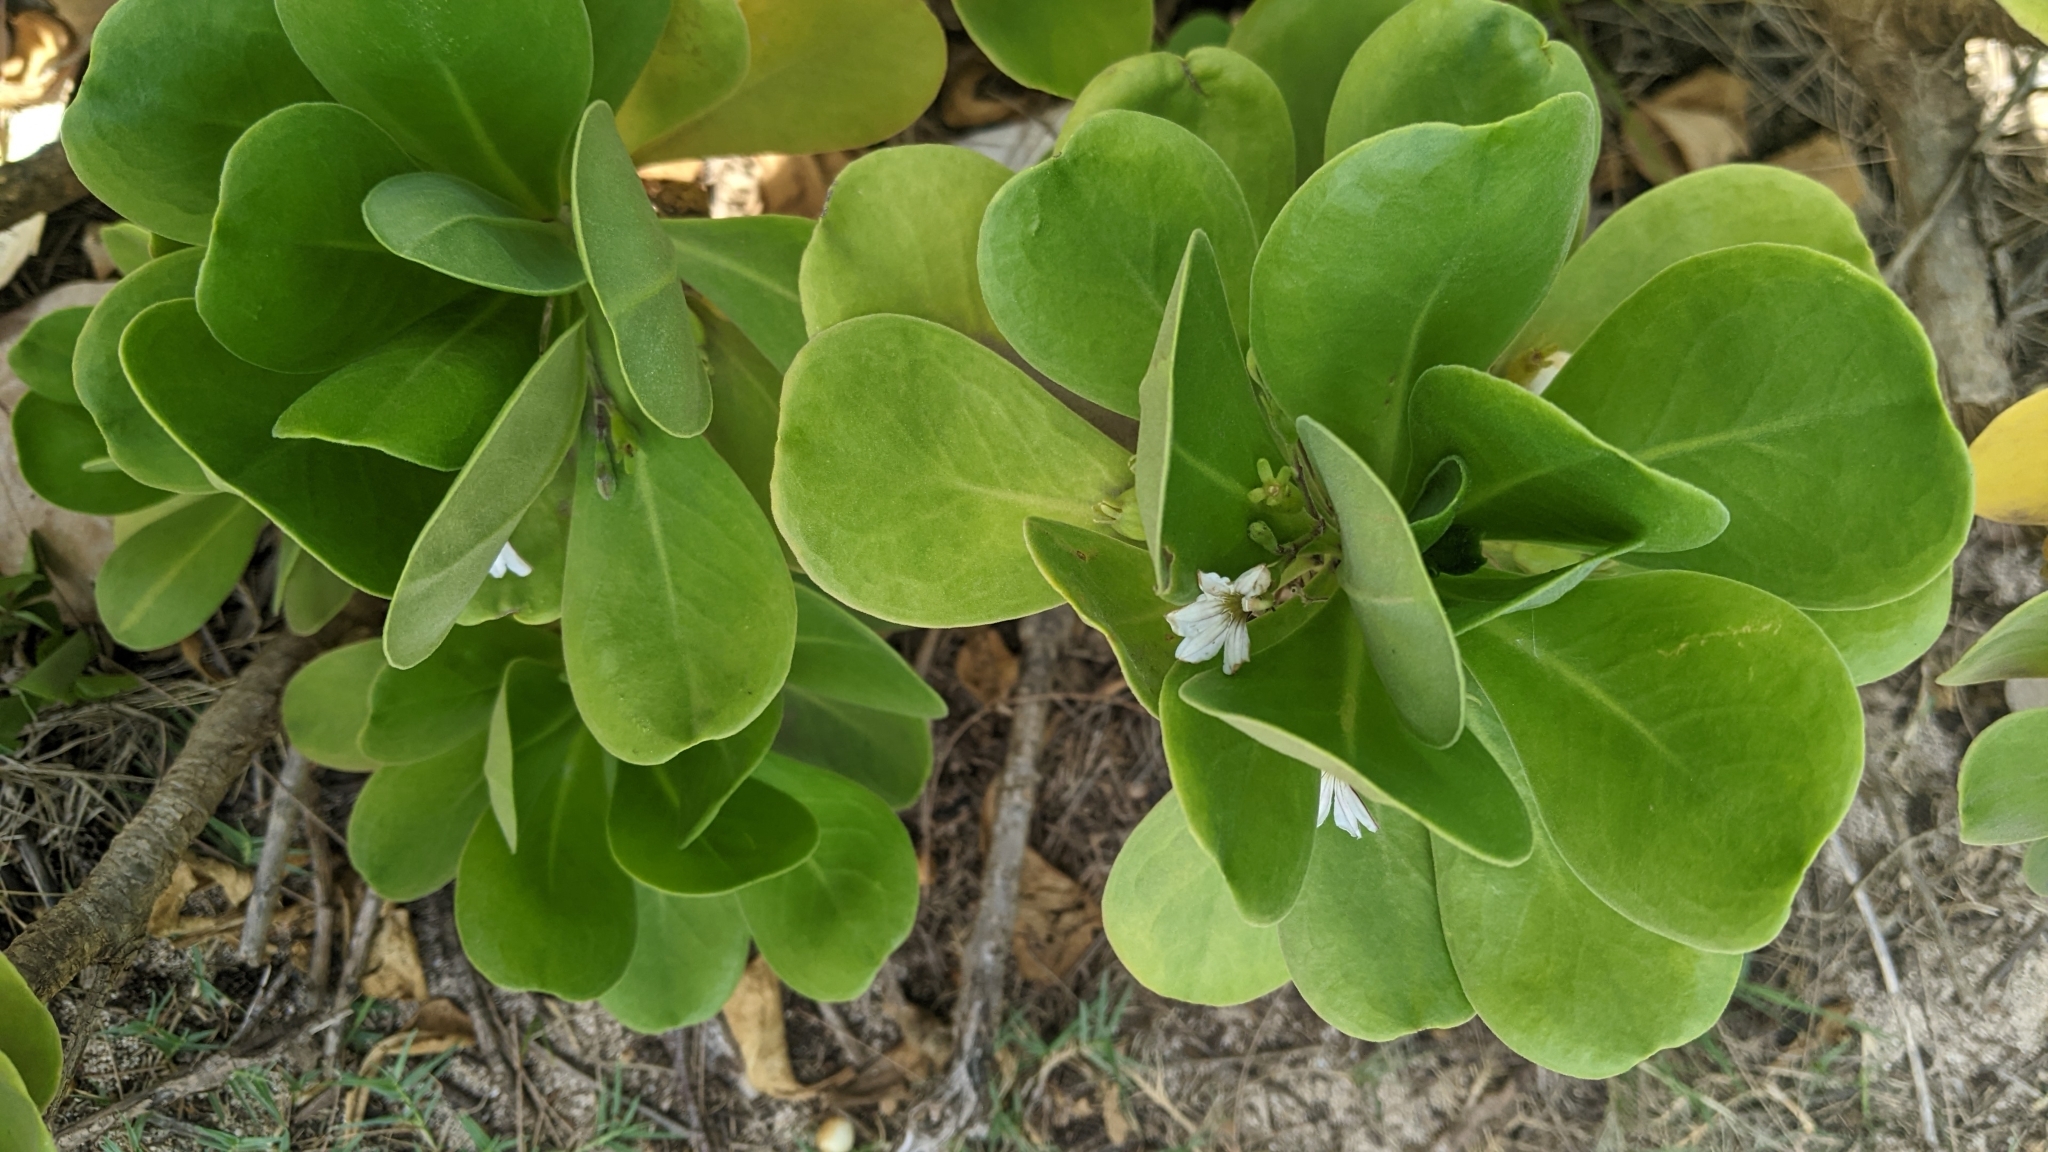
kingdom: Plantae
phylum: Tracheophyta
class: Magnoliopsida
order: Asterales
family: Goodeniaceae
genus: Scaevola
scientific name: Scaevola taccada
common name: Sea lettucetree
